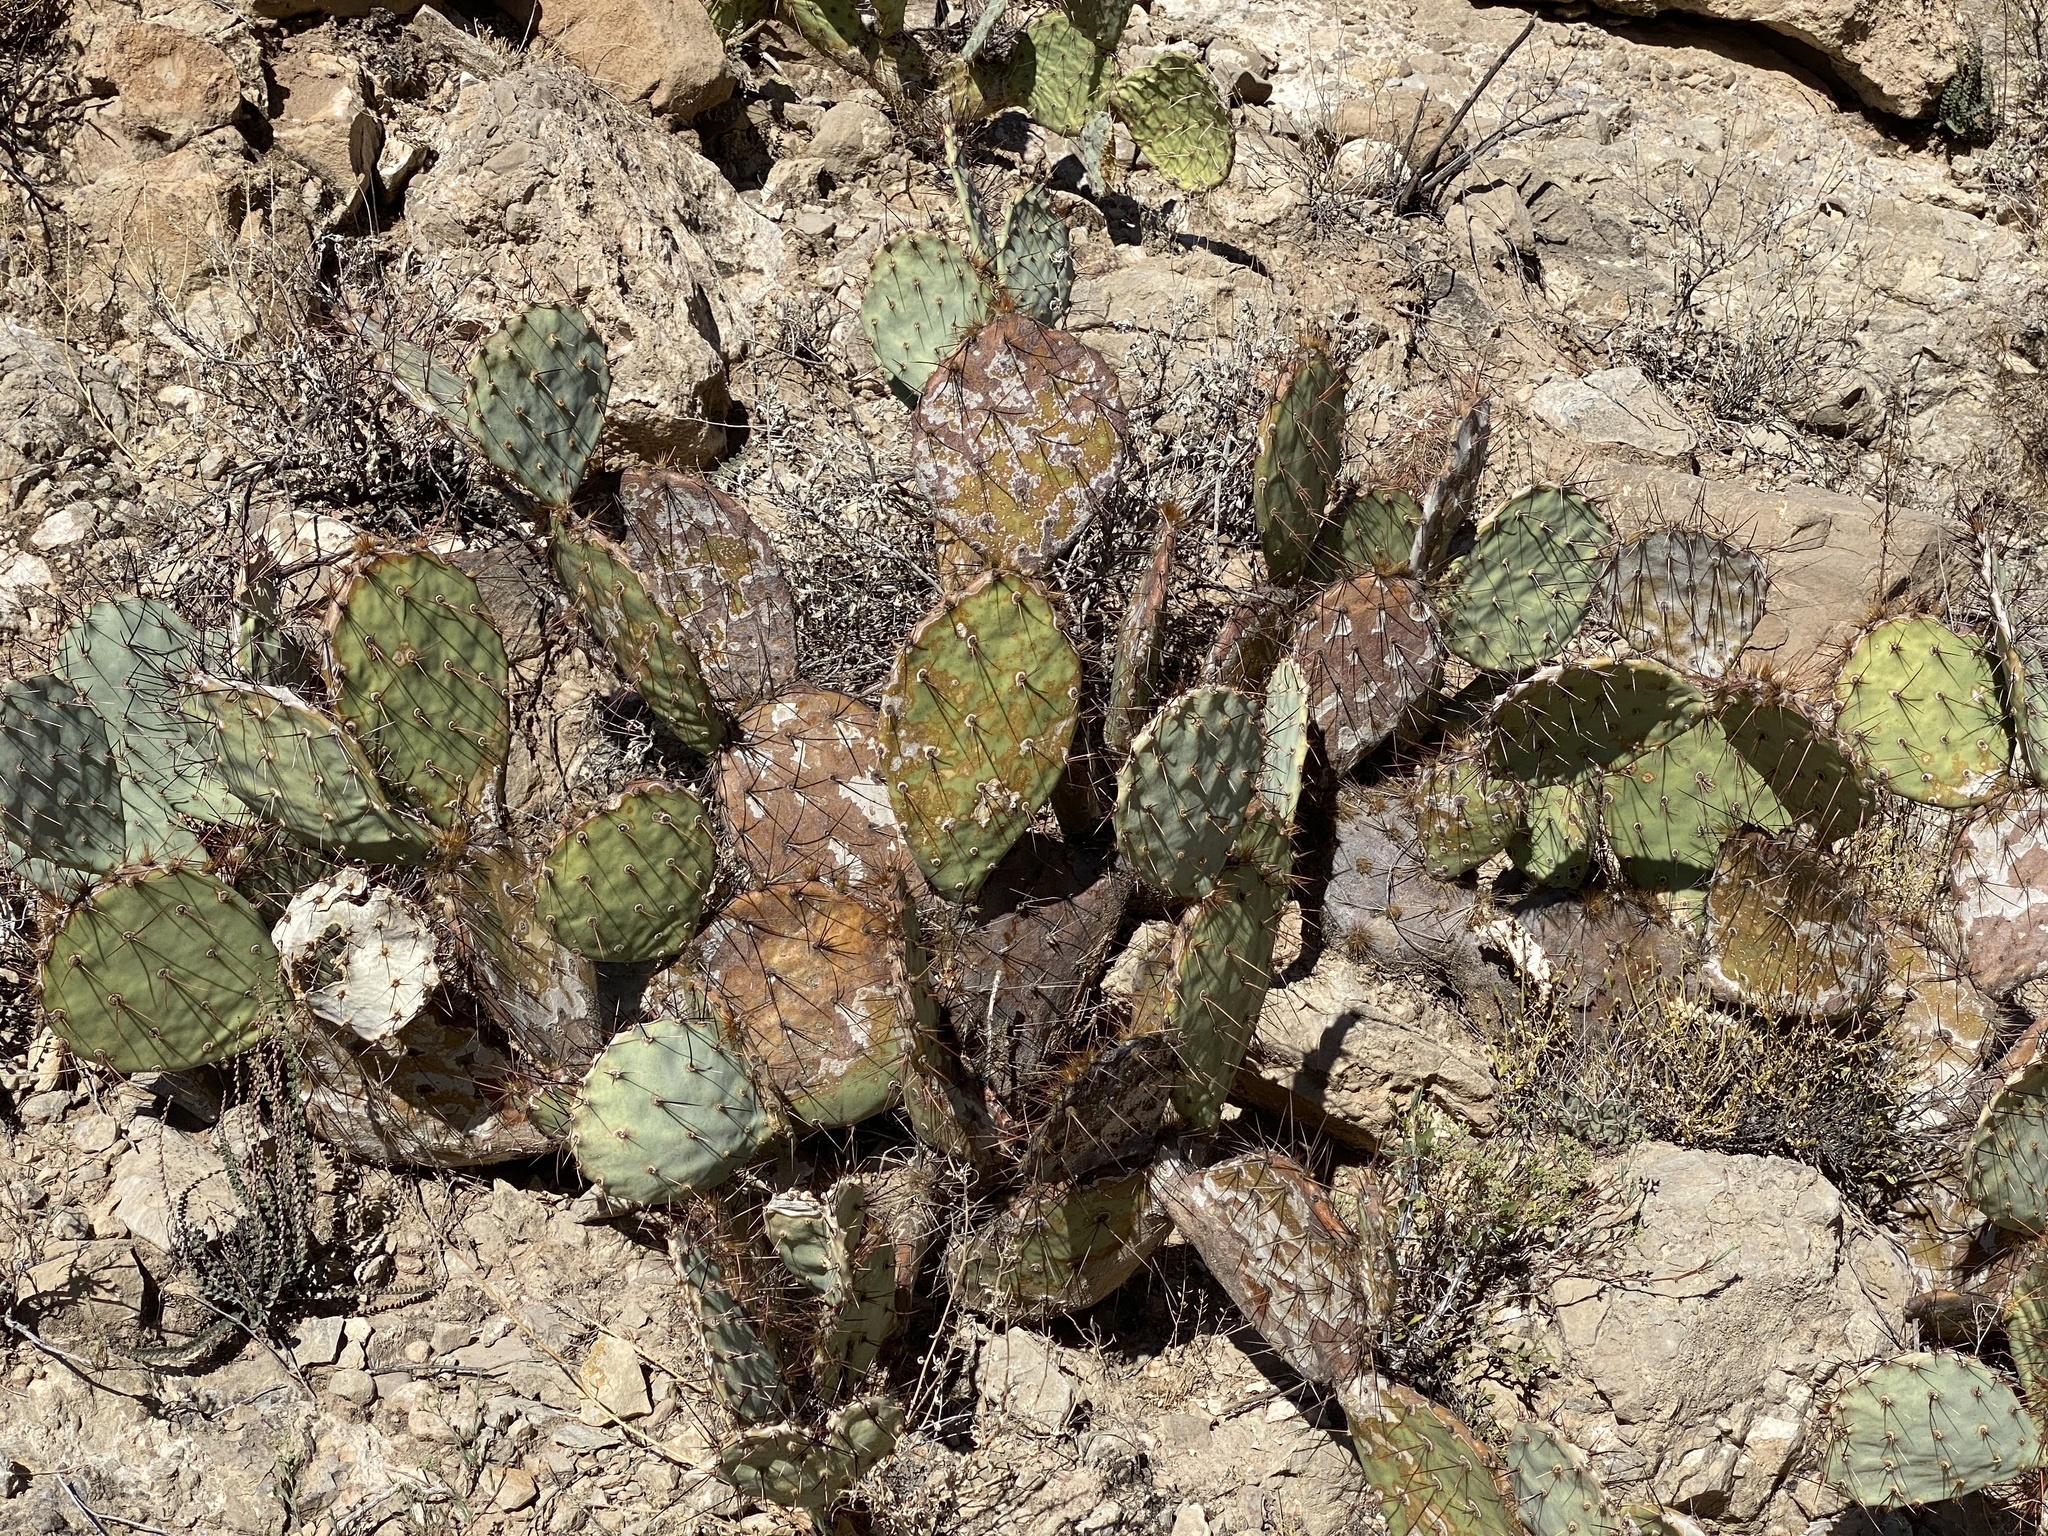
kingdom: Plantae
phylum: Tracheophyta
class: Magnoliopsida
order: Caryophyllales
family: Cactaceae
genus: Opuntia
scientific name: Opuntia engelmannii
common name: Cactus-apple
